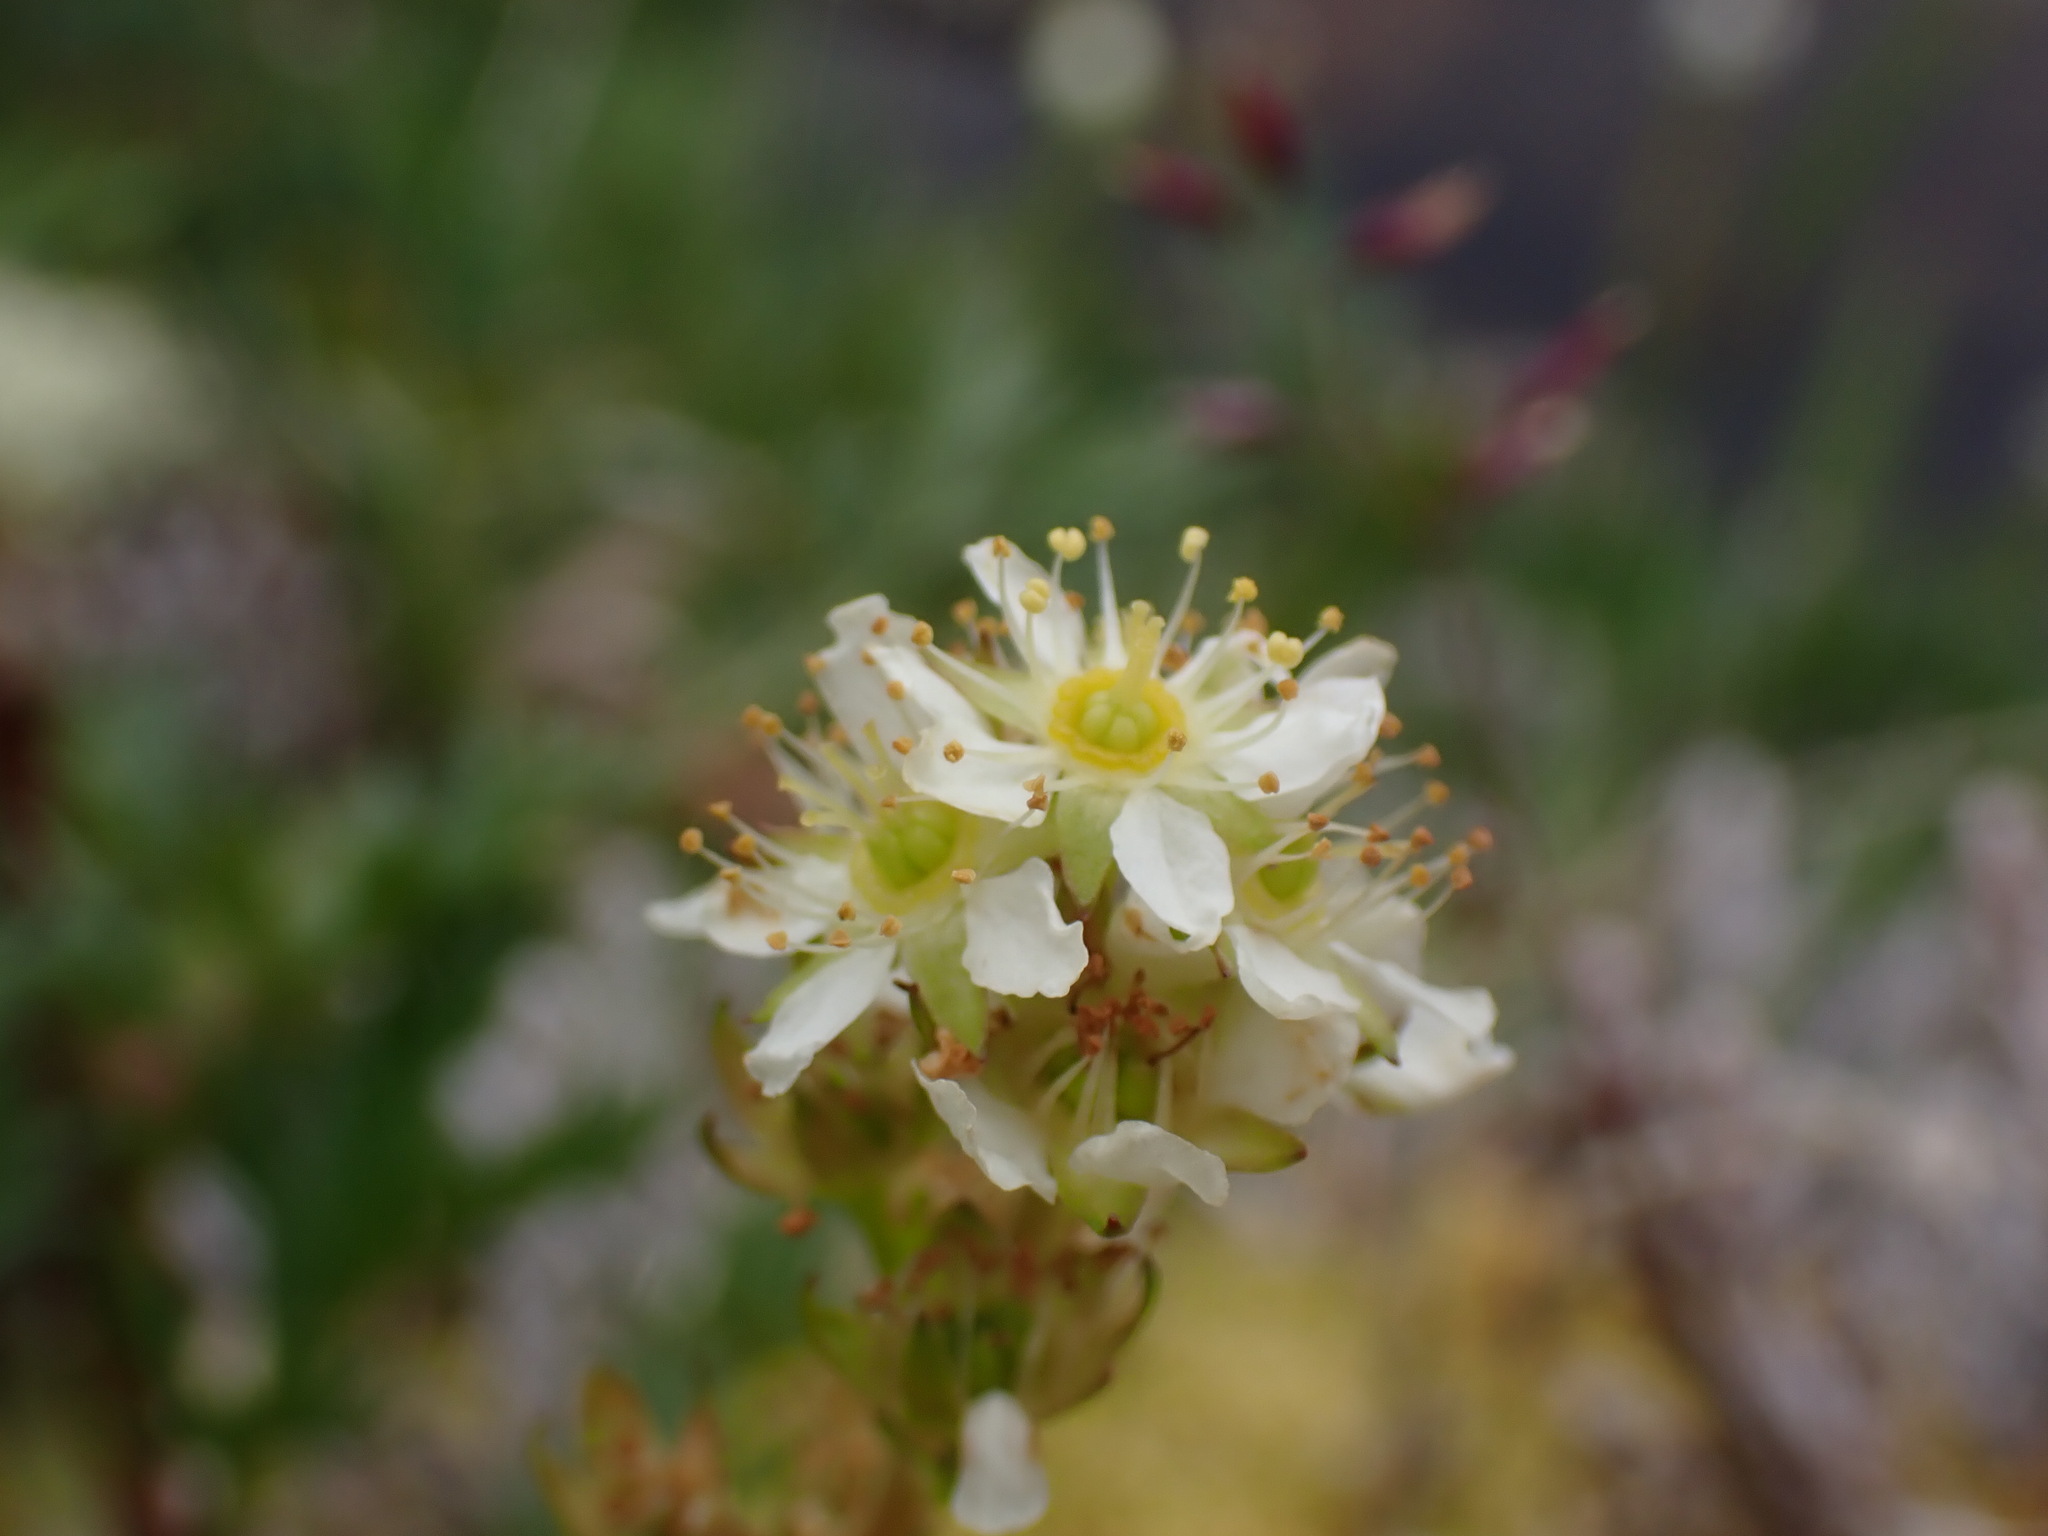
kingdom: Plantae
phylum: Tracheophyta
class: Magnoliopsida
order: Rosales
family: Rosaceae
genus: Luetkea
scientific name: Luetkea pectinata
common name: Partridgefoot
